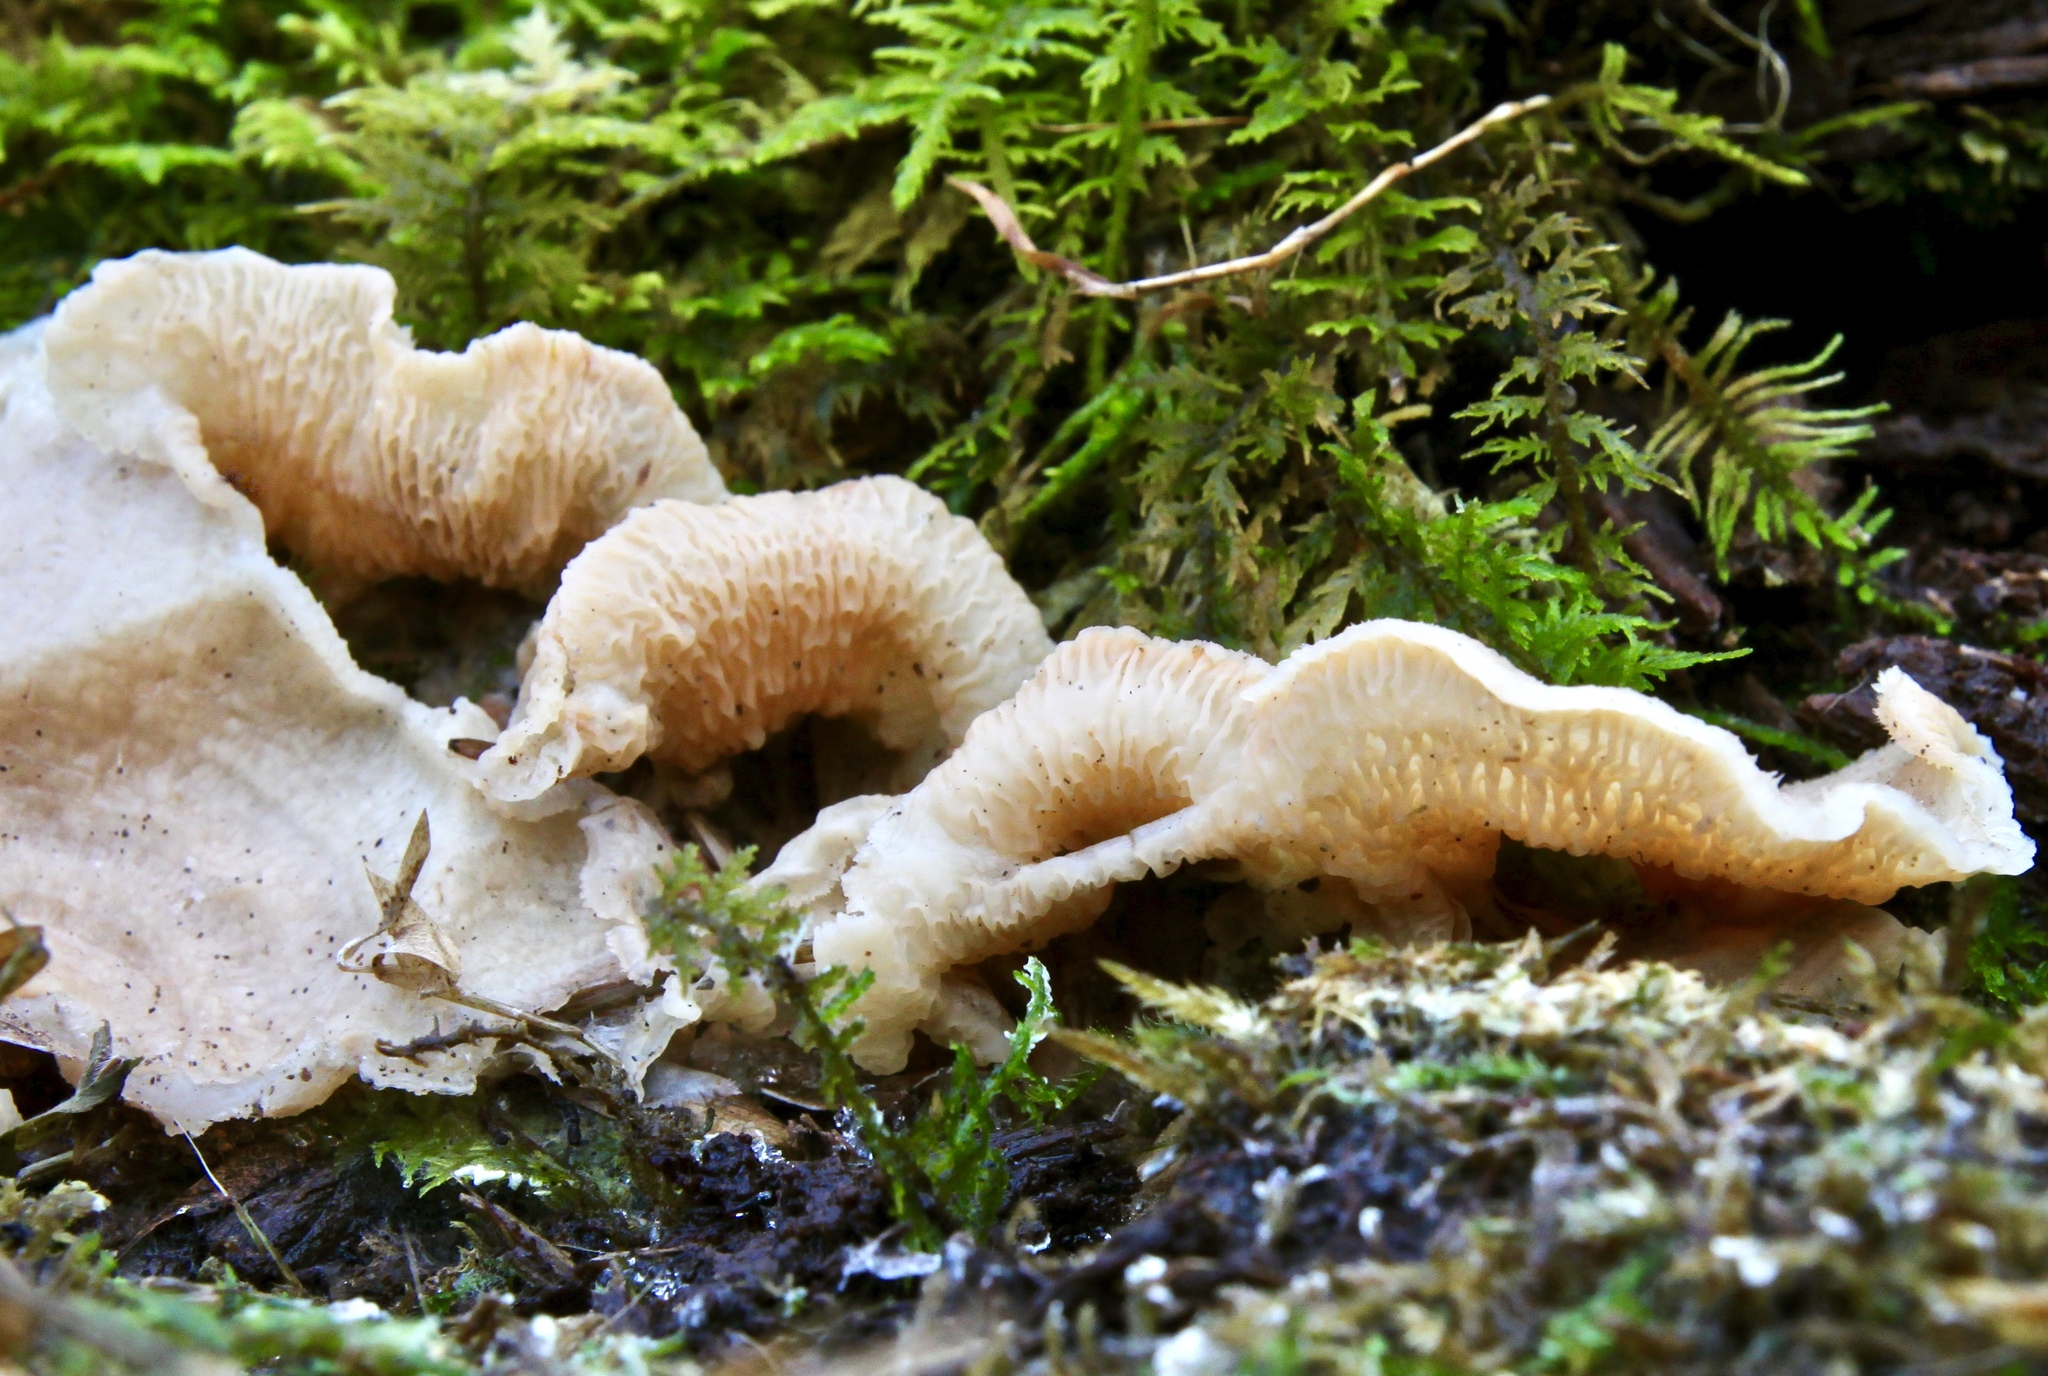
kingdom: Fungi
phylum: Basidiomycota
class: Agaricomycetes
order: Polyporales
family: Meruliaceae
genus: Phlebia
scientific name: Phlebia tremellosa
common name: Jelly rot
